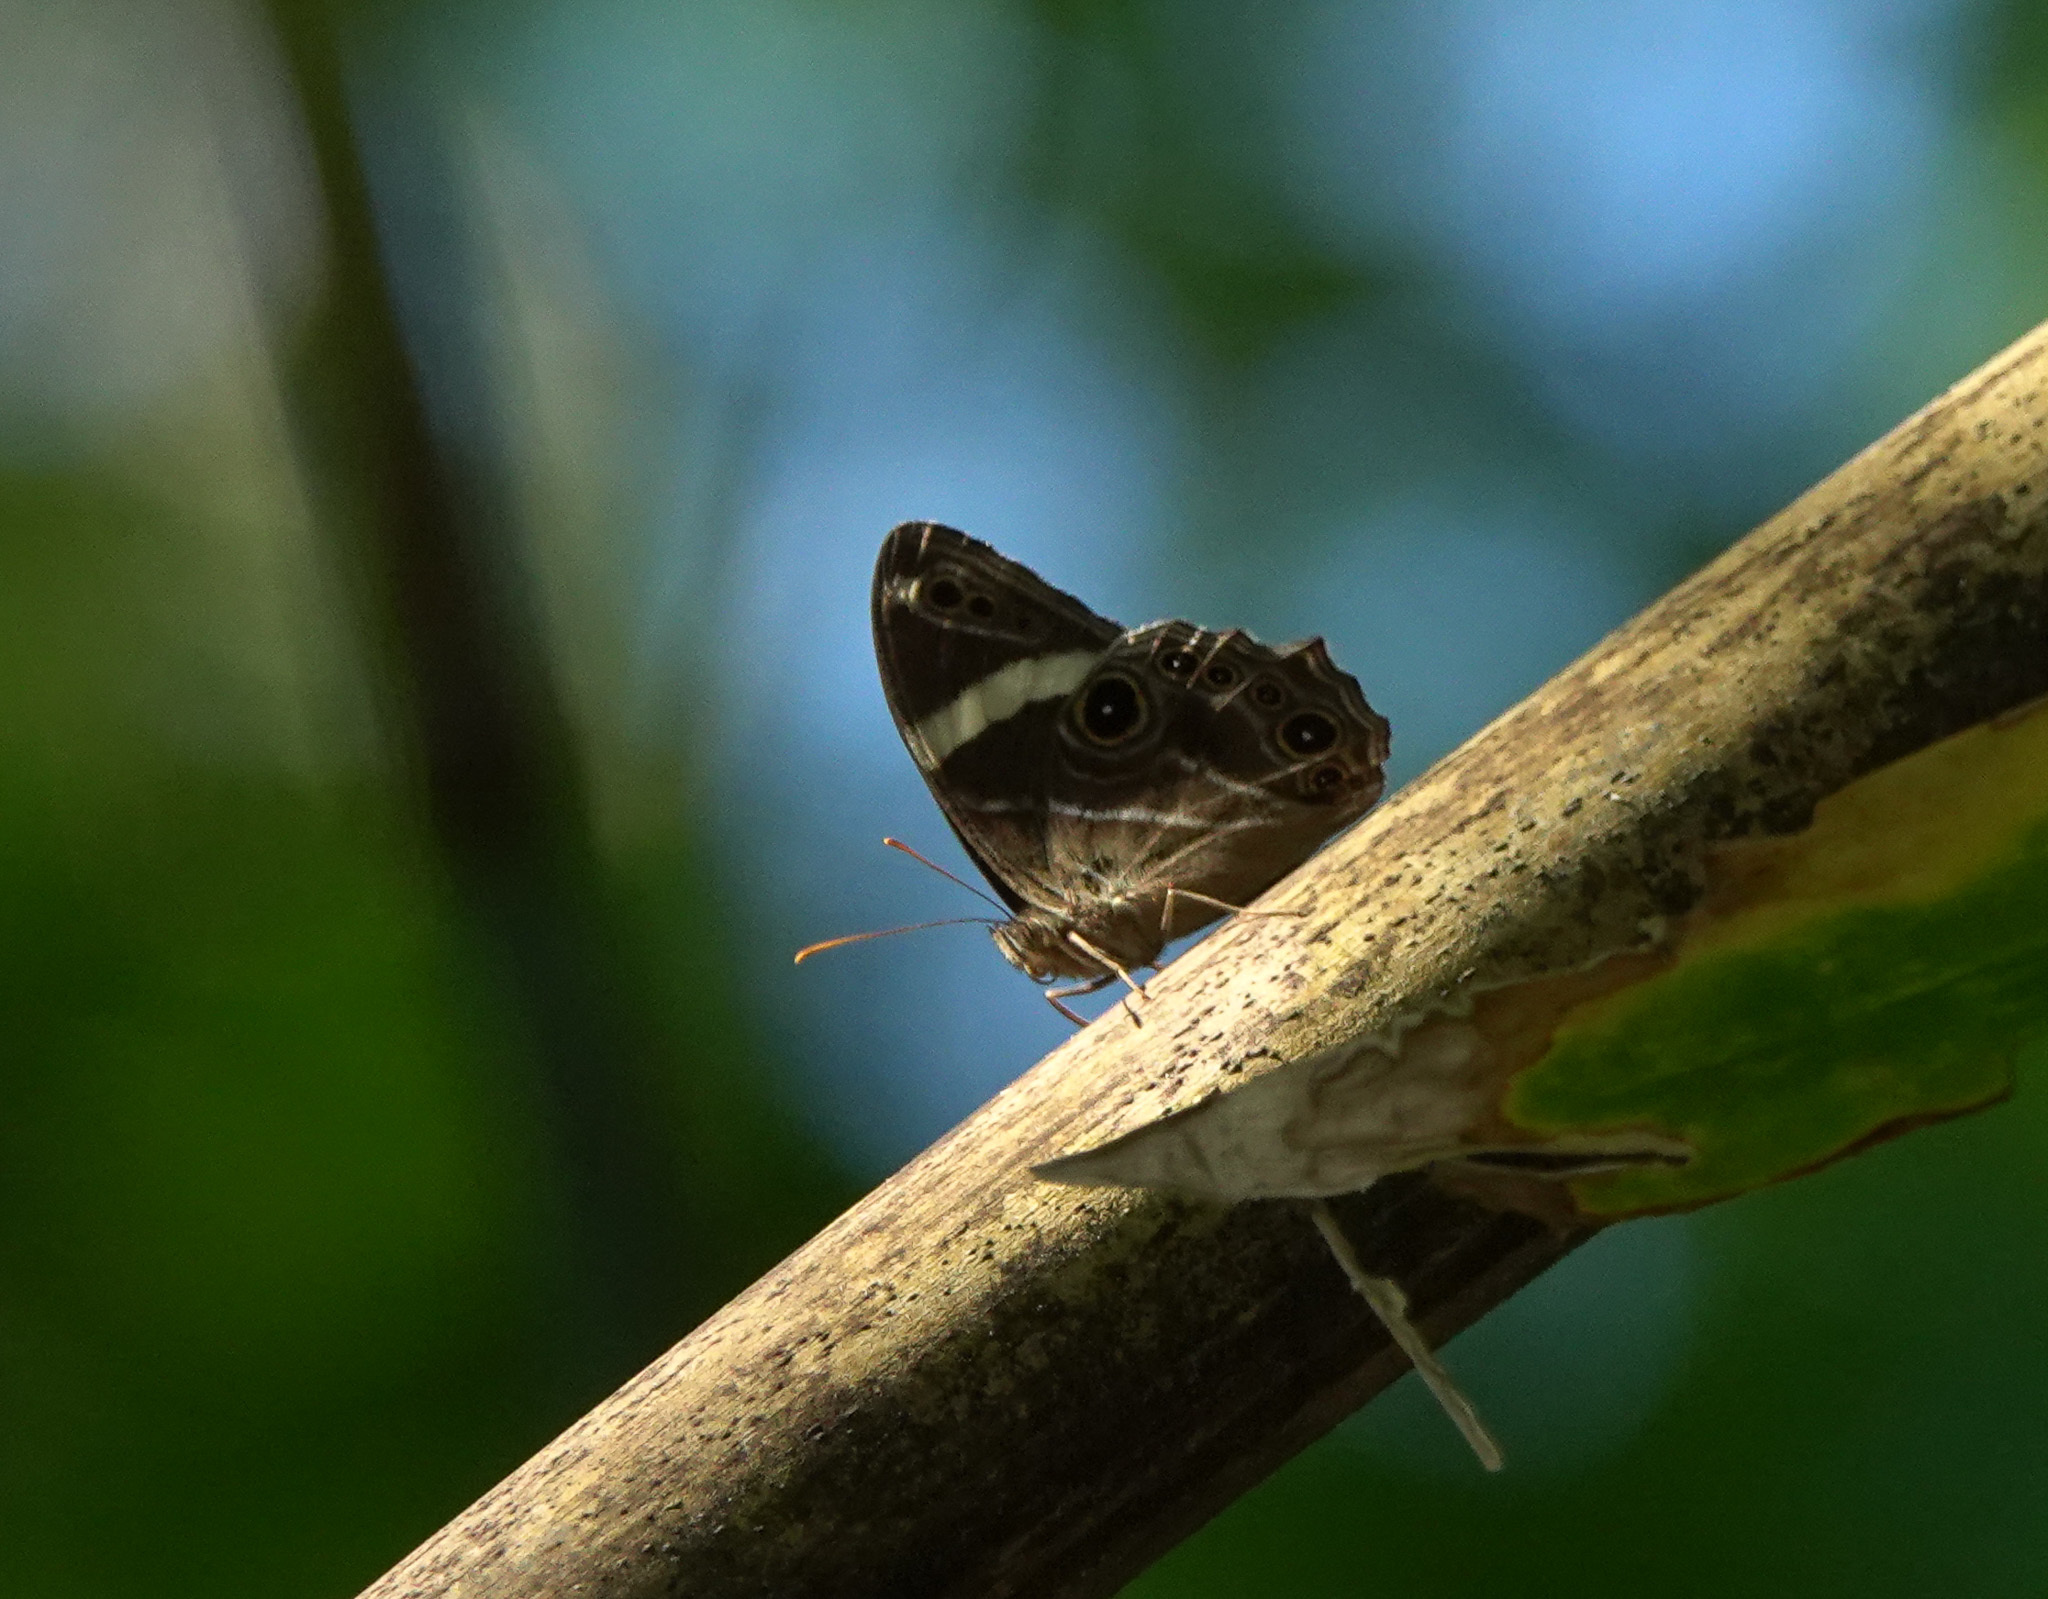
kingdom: Animalia
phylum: Arthropoda
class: Insecta
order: Lepidoptera
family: Nymphalidae
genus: Lethe
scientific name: Lethe confusa
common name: Banded treebrown
